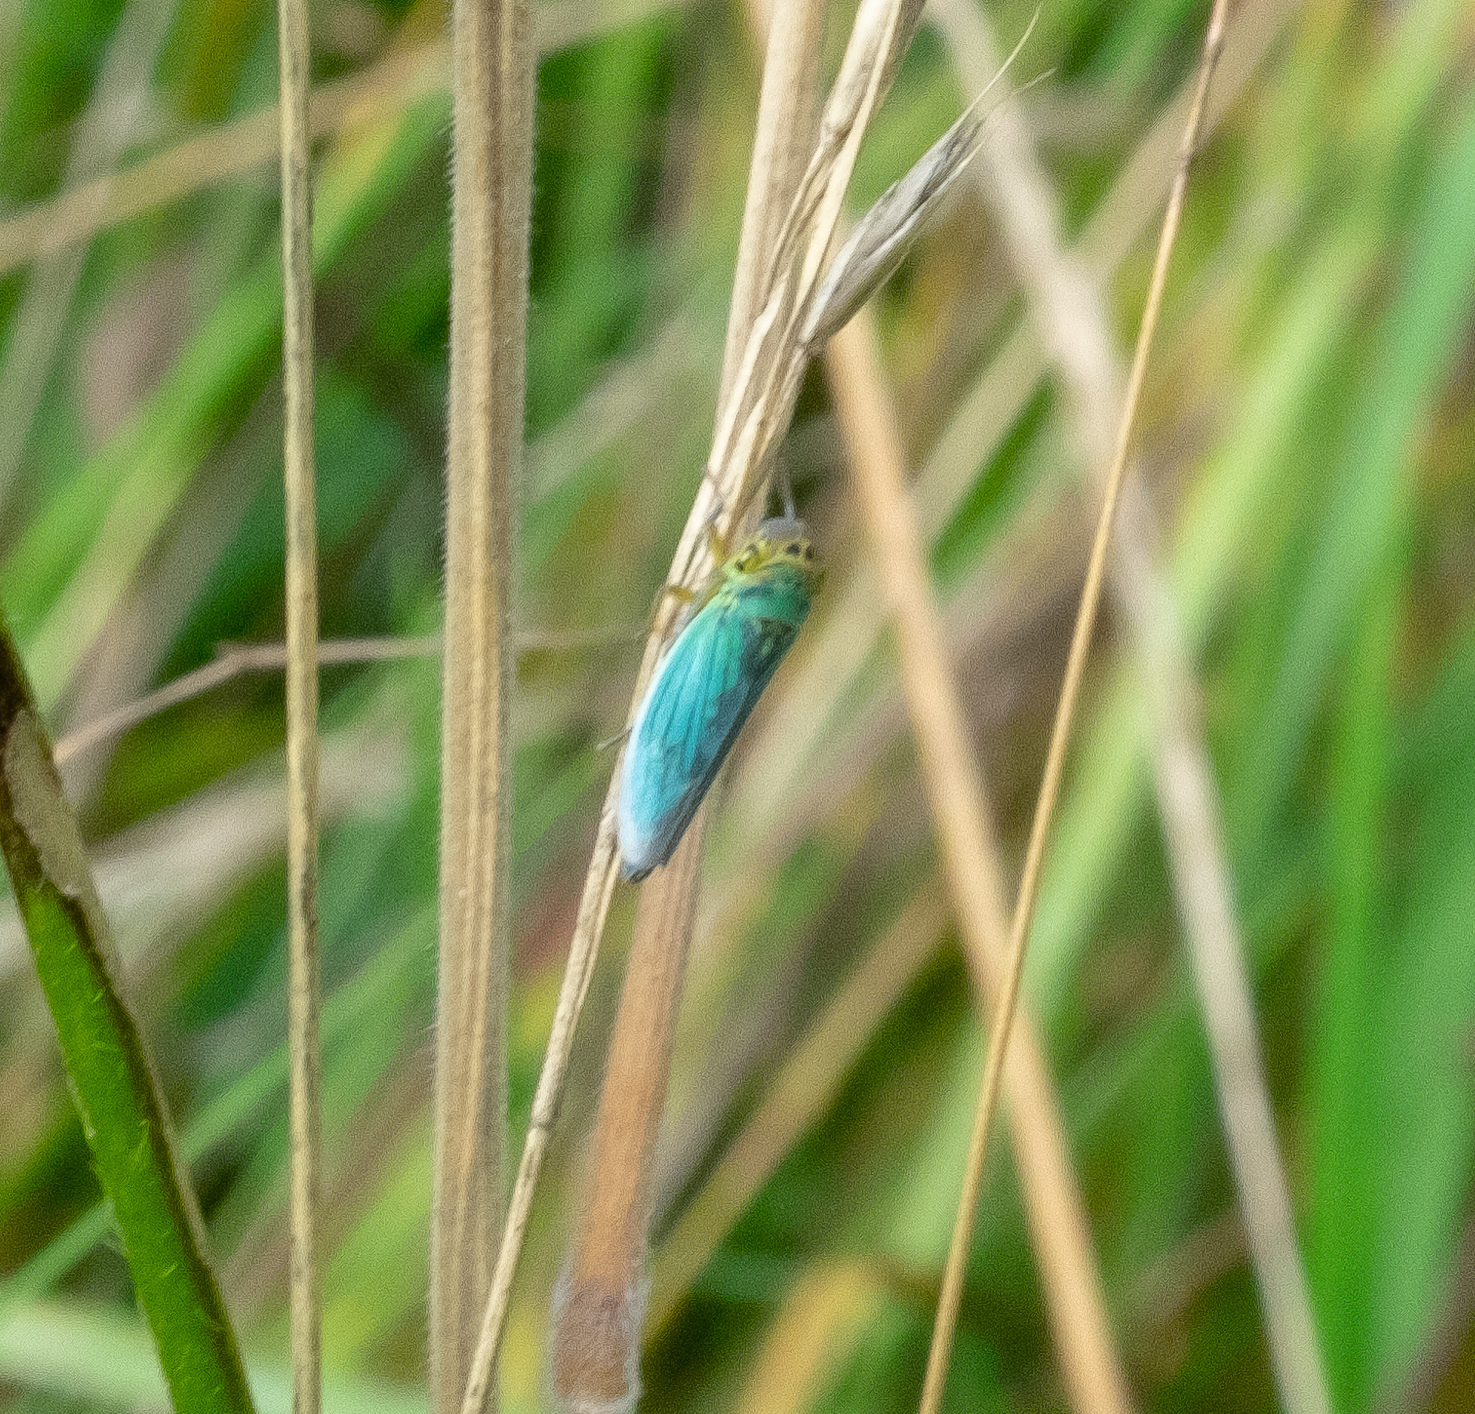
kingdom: Animalia
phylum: Arthropoda
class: Insecta
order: Hemiptera
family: Cicadellidae
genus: Cicadella
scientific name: Cicadella viridis
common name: Leafhopper
